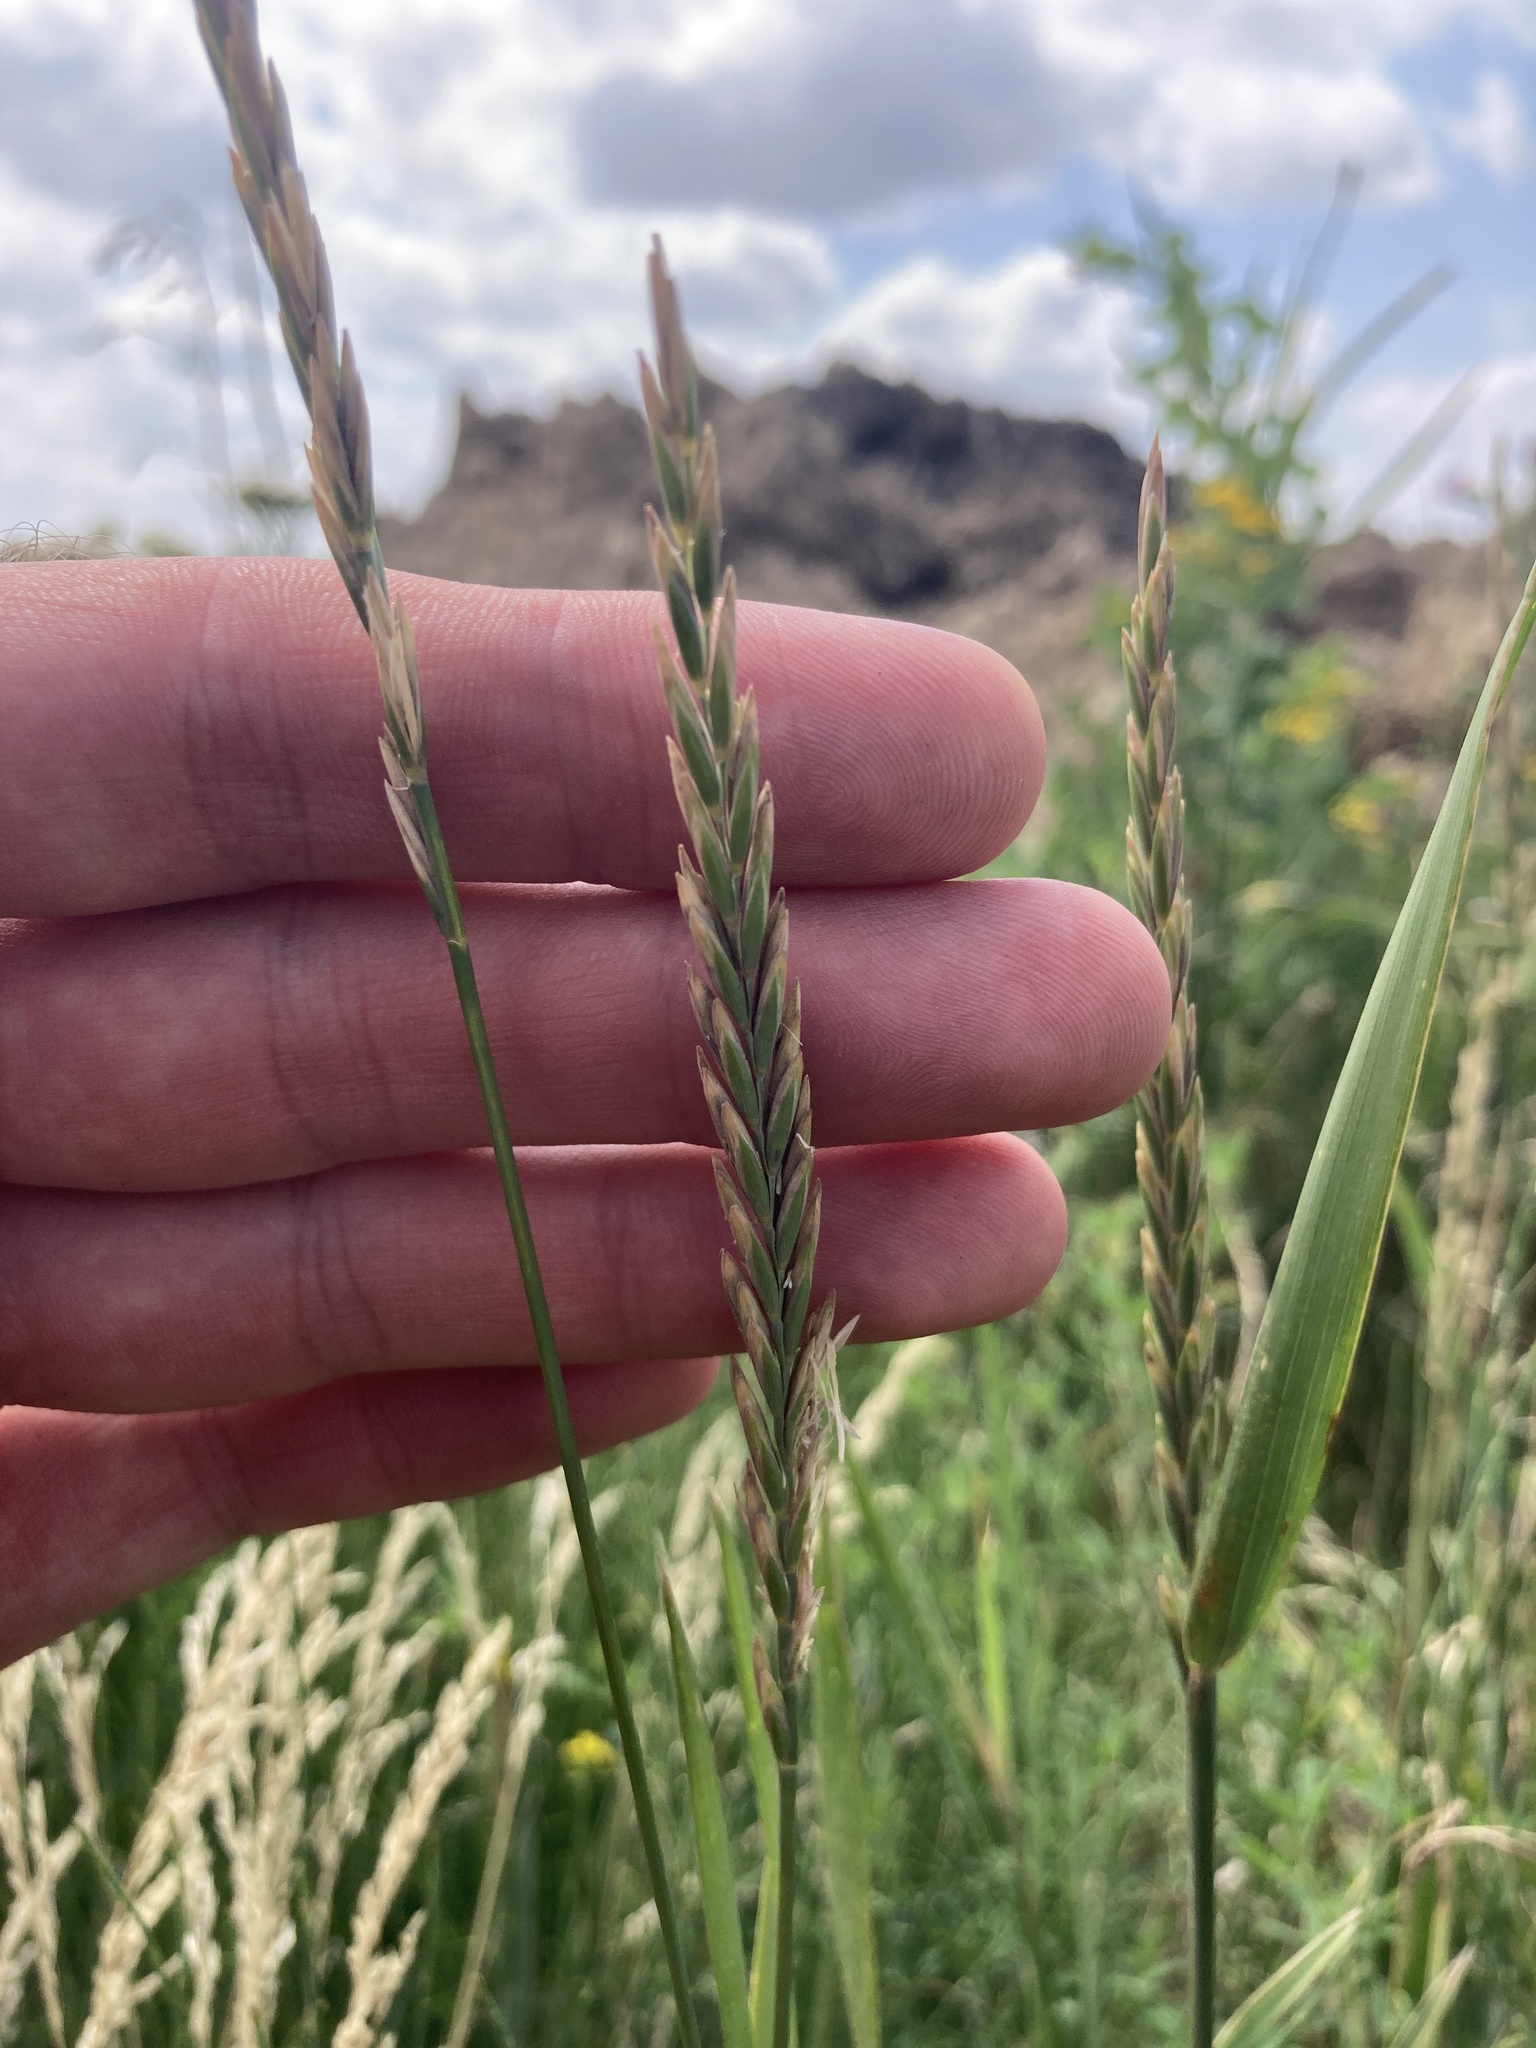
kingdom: Plantae
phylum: Tracheophyta
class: Liliopsida
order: Poales
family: Poaceae
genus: Elymus
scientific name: Elymus repens
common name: Quackgrass
